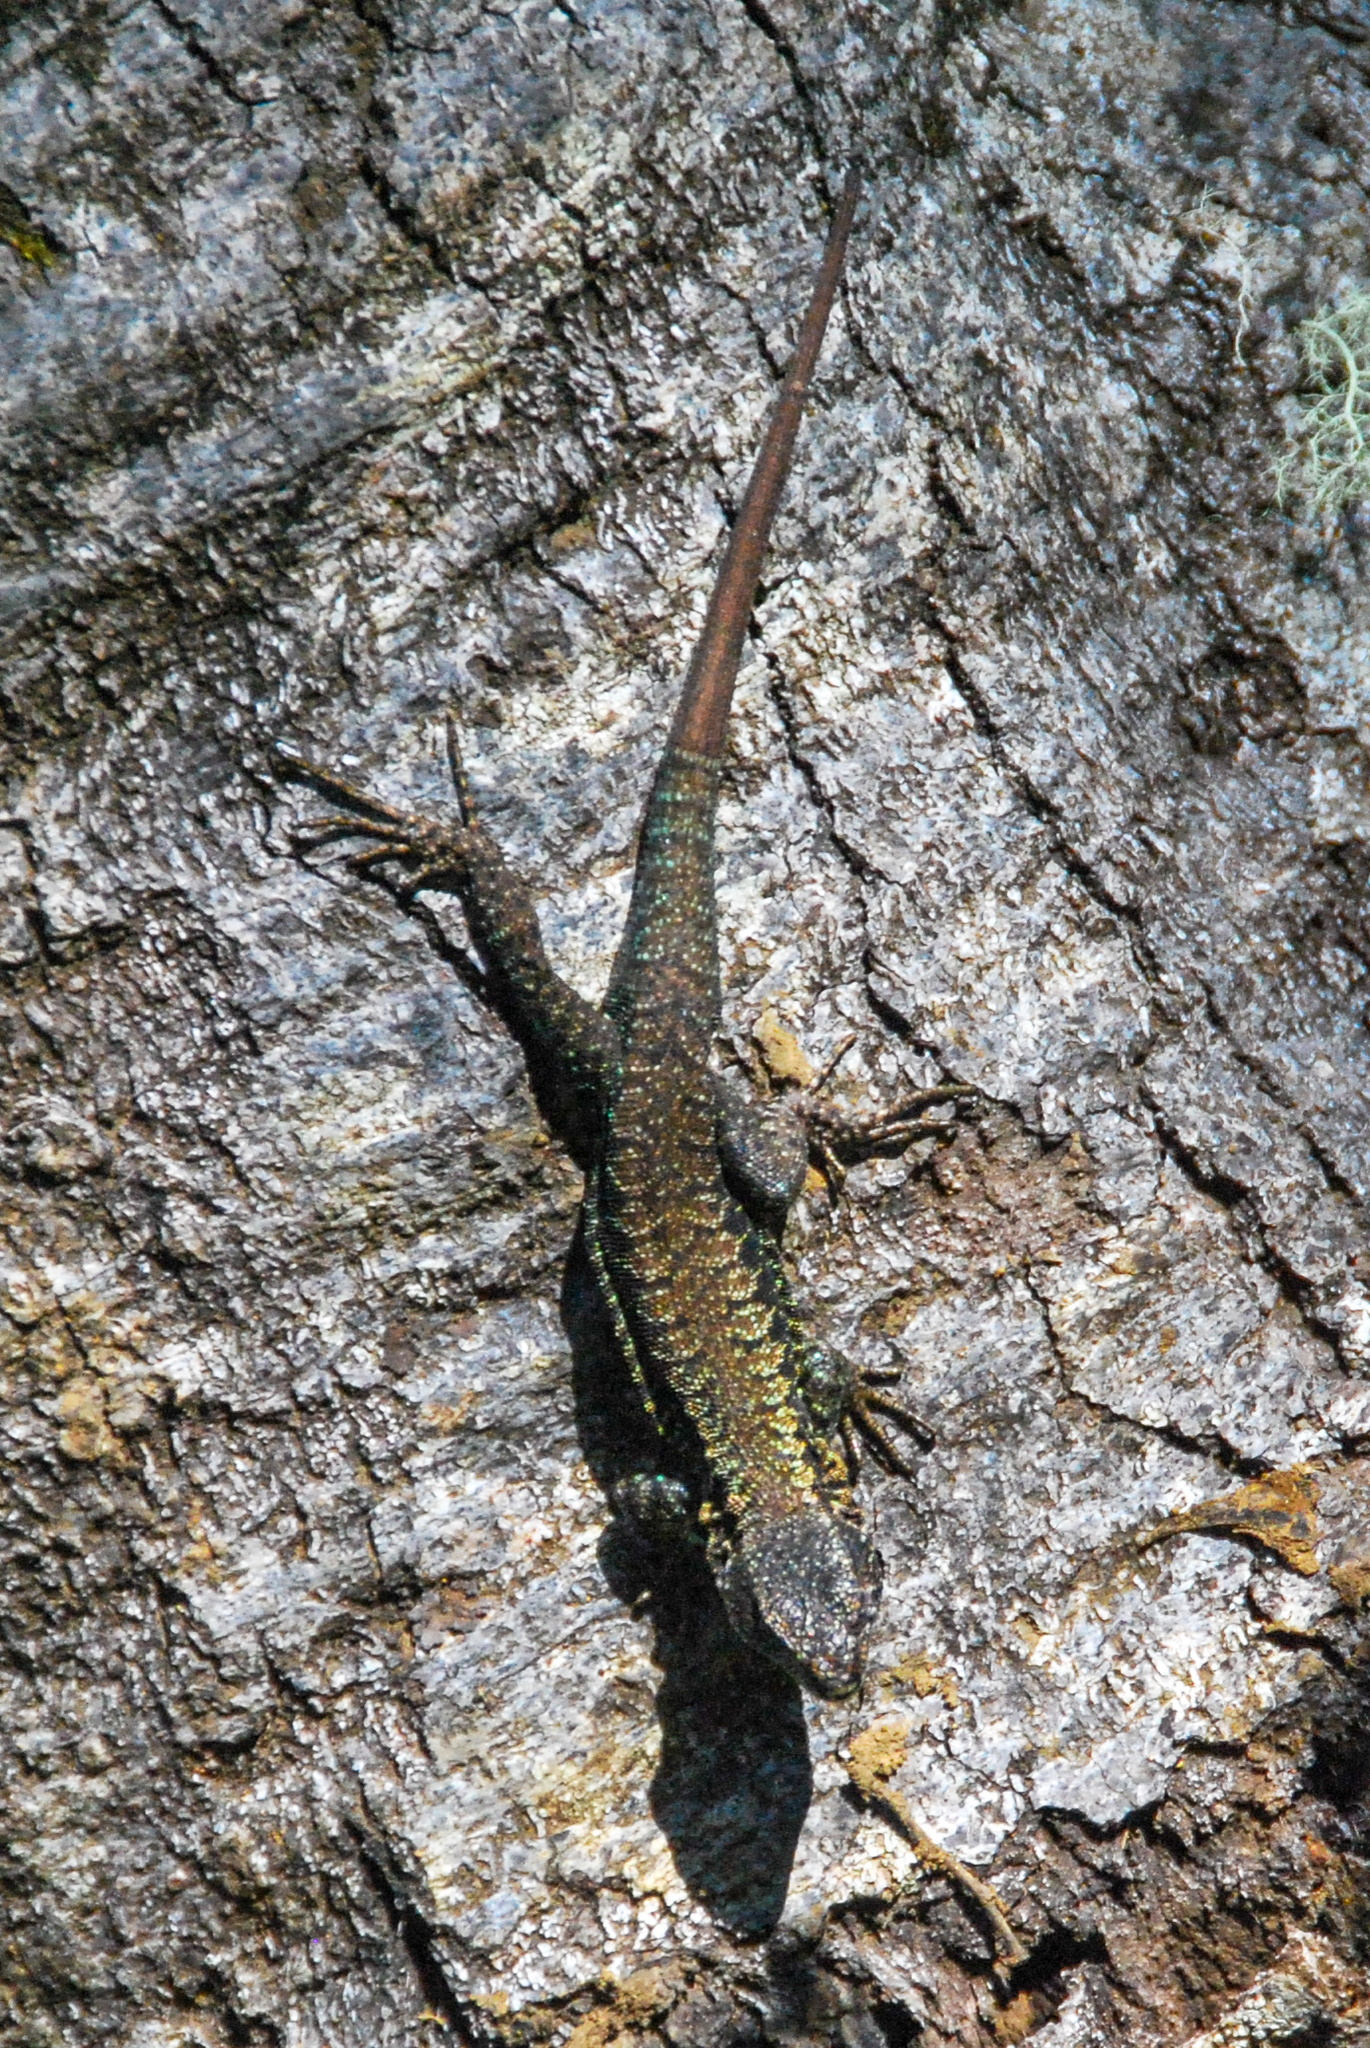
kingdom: Animalia
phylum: Chordata
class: Squamata
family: Liolaemidae
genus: Liolaemus
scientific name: Liolaemus pictus
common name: Painted tree iguana
